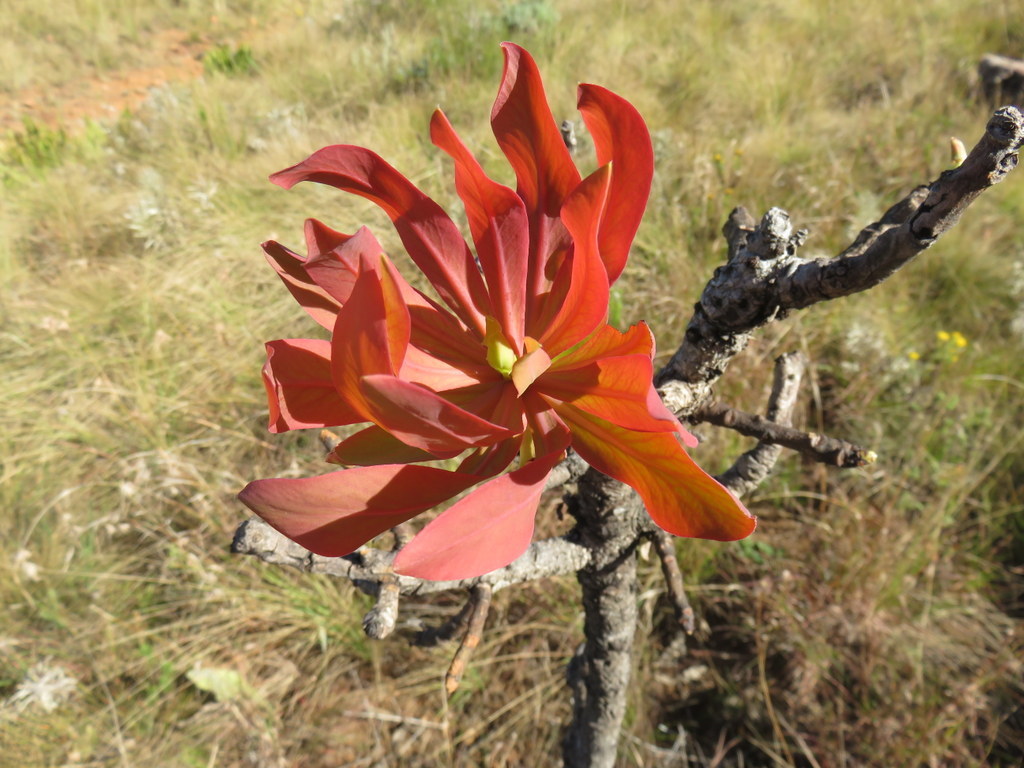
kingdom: Plantae
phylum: Tracheophyta
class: Magnoliopsida
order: Proteales
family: Proteaceae
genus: Protea
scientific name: Protea caffra
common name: Common sugarbush
